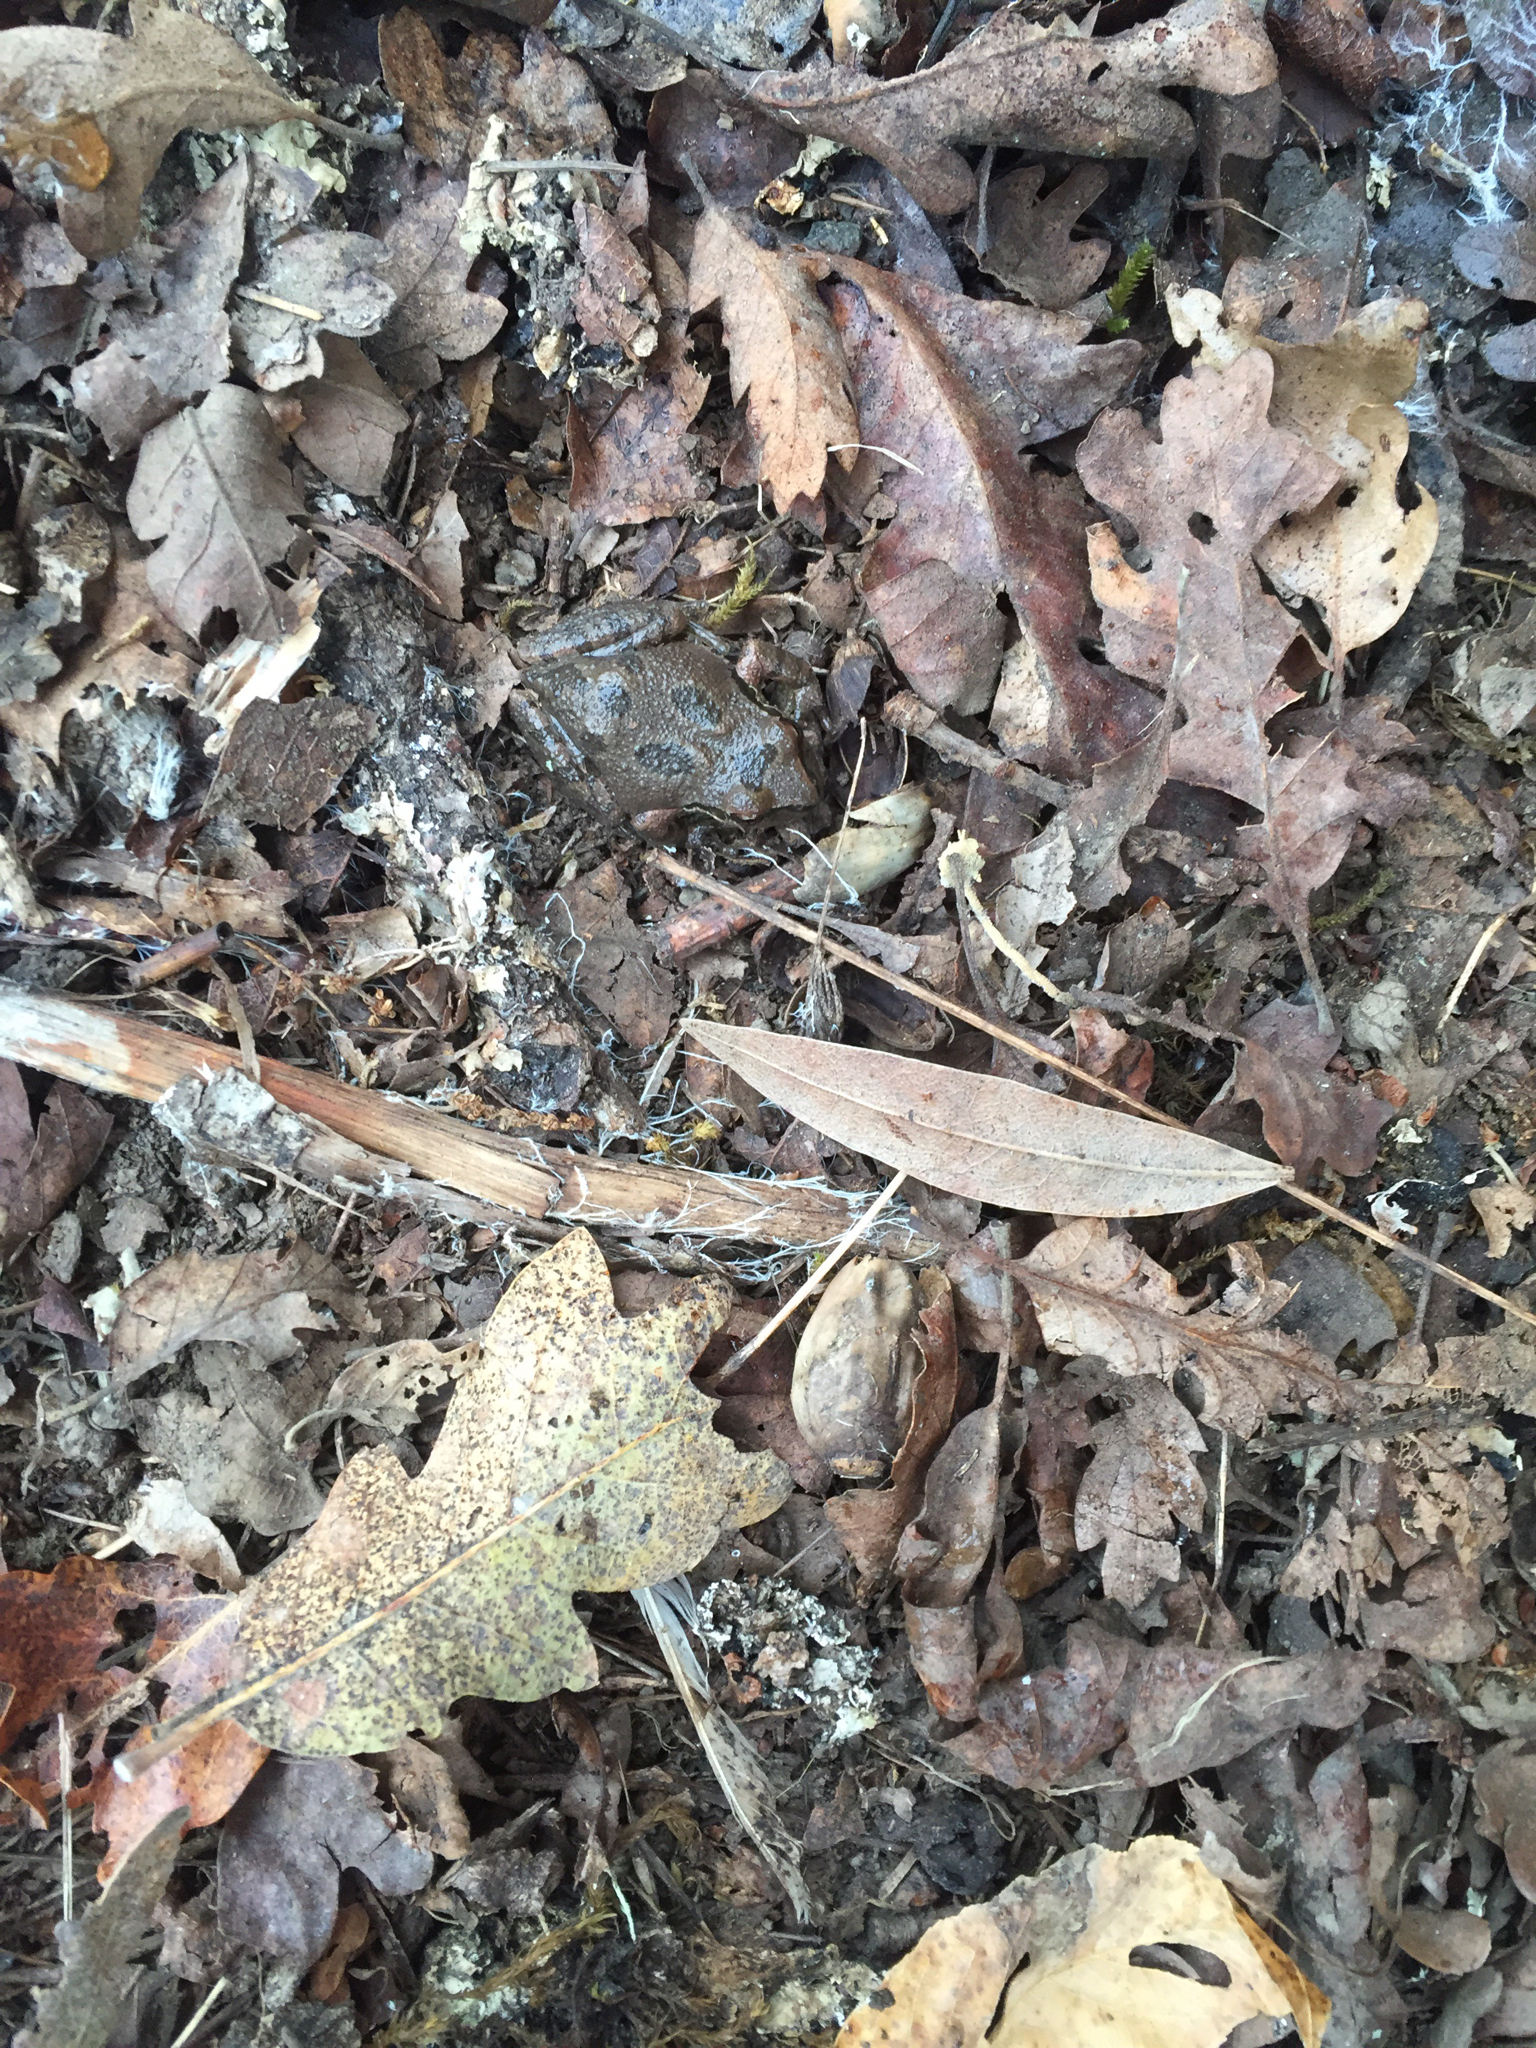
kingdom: Animalia
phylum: Chordata
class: Amphibia
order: Anura
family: Hylidae
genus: Pseudacris
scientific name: Pseudacris regilla
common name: Pacific chorus frog
